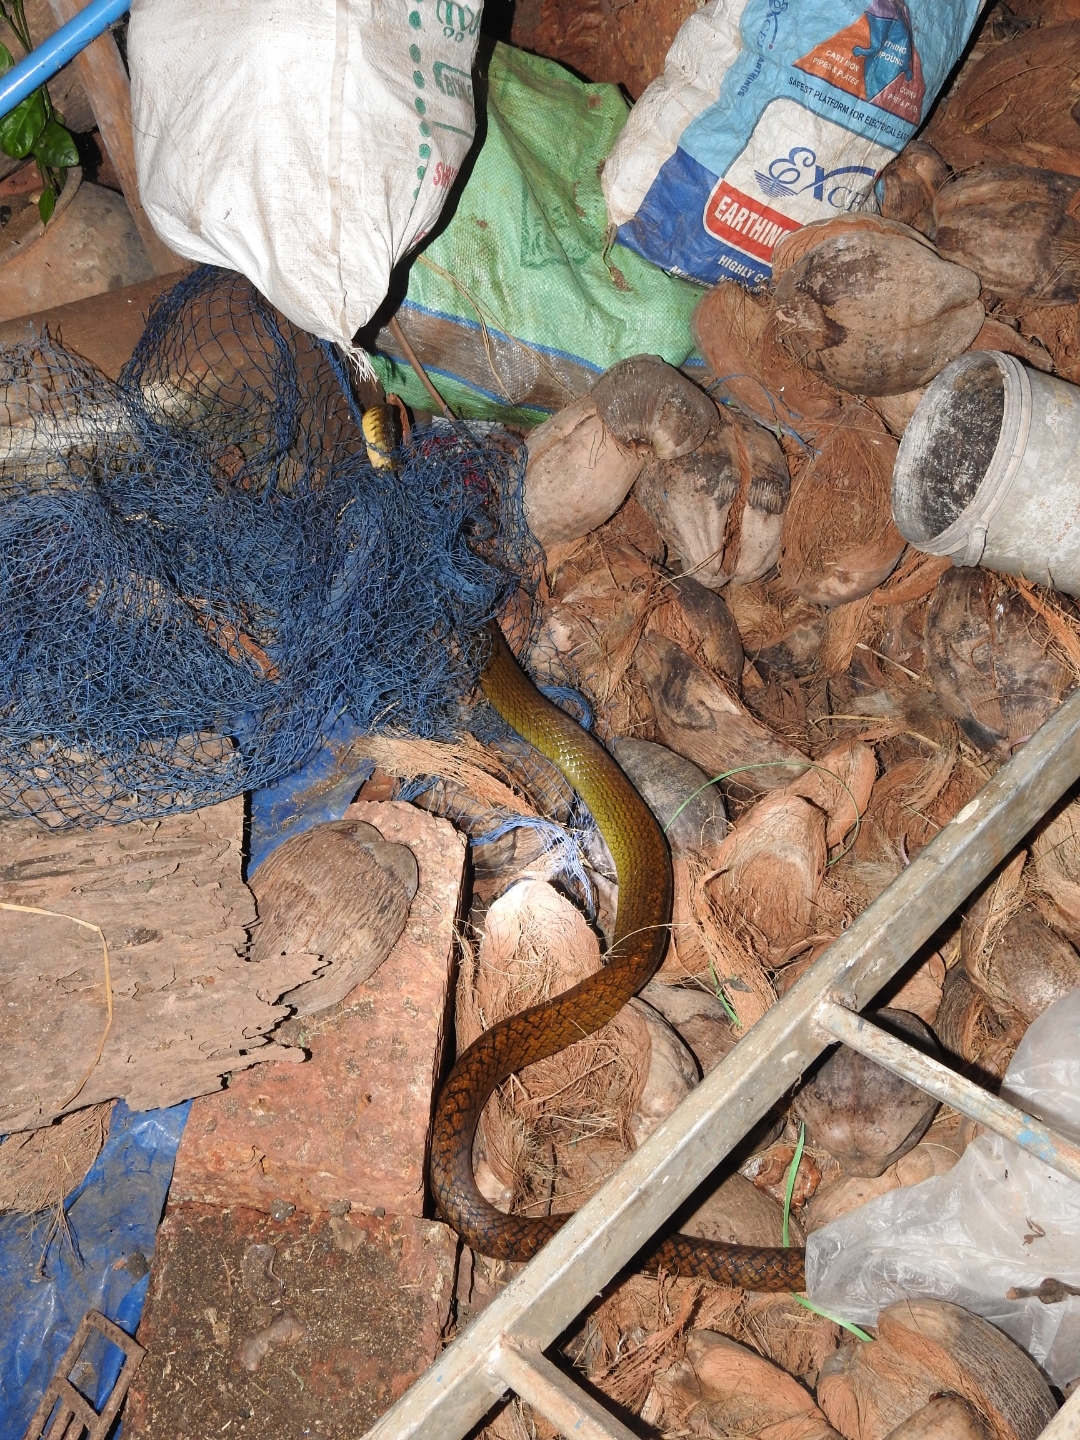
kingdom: Animalia
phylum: Chordata
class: Squamata
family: Colubridae
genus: Ptyas
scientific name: Ptyas mucosa
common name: Oriental ratsnake
